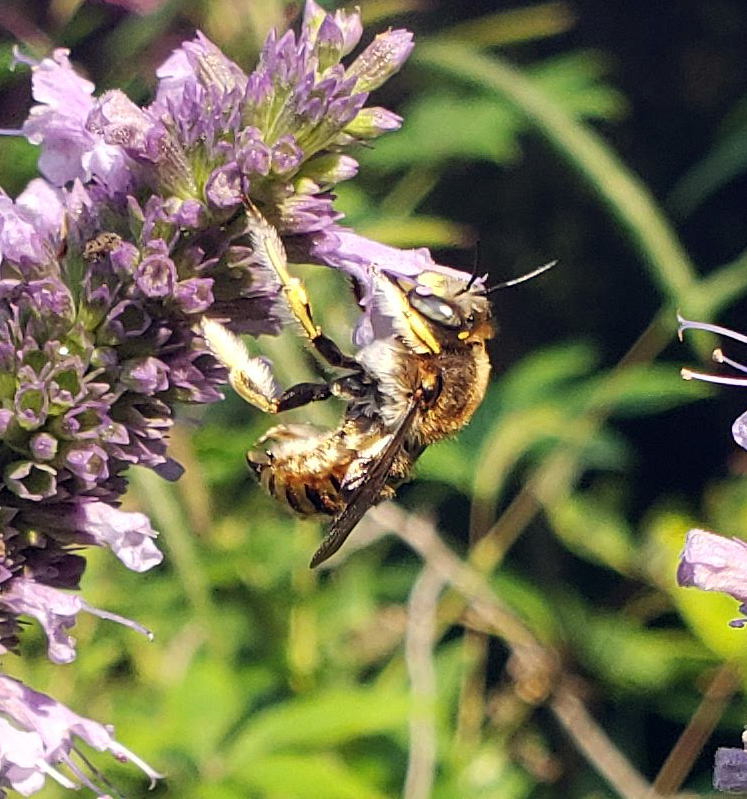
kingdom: Animalia
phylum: Arthropoda
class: Insecta
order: Hymenoptera
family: Megachilidae
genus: Anthidium
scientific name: Anthidium manicatum
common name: Wool carder bee
